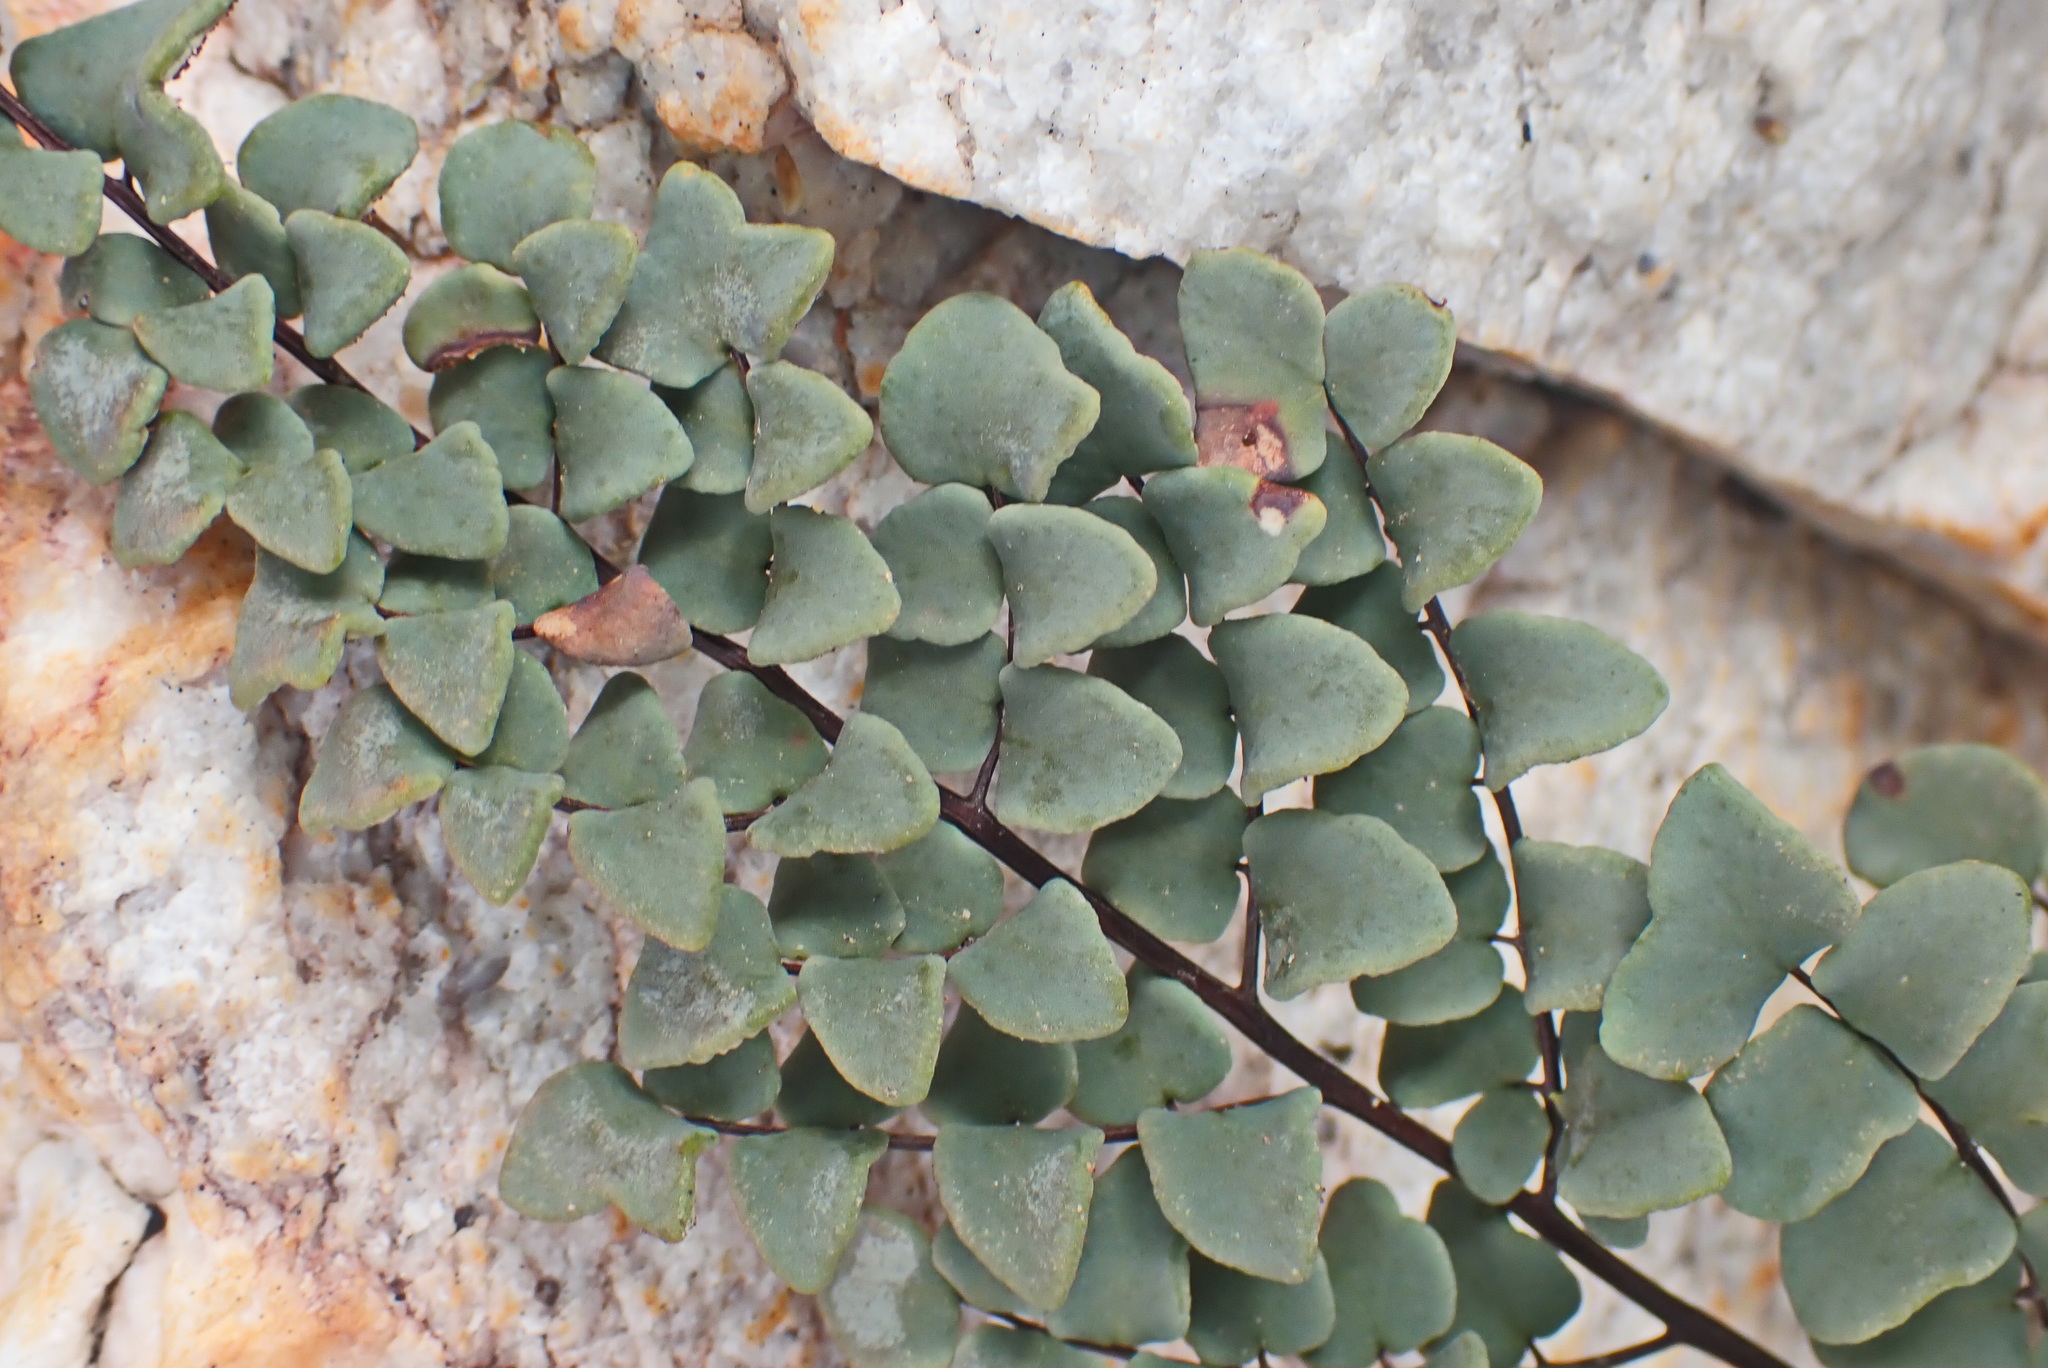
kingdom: Plantae
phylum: Tracheophyta
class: Polypodiopsida
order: Polypodiales
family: Pteridaceae
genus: Pellaea
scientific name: Pellaea calomelanos
